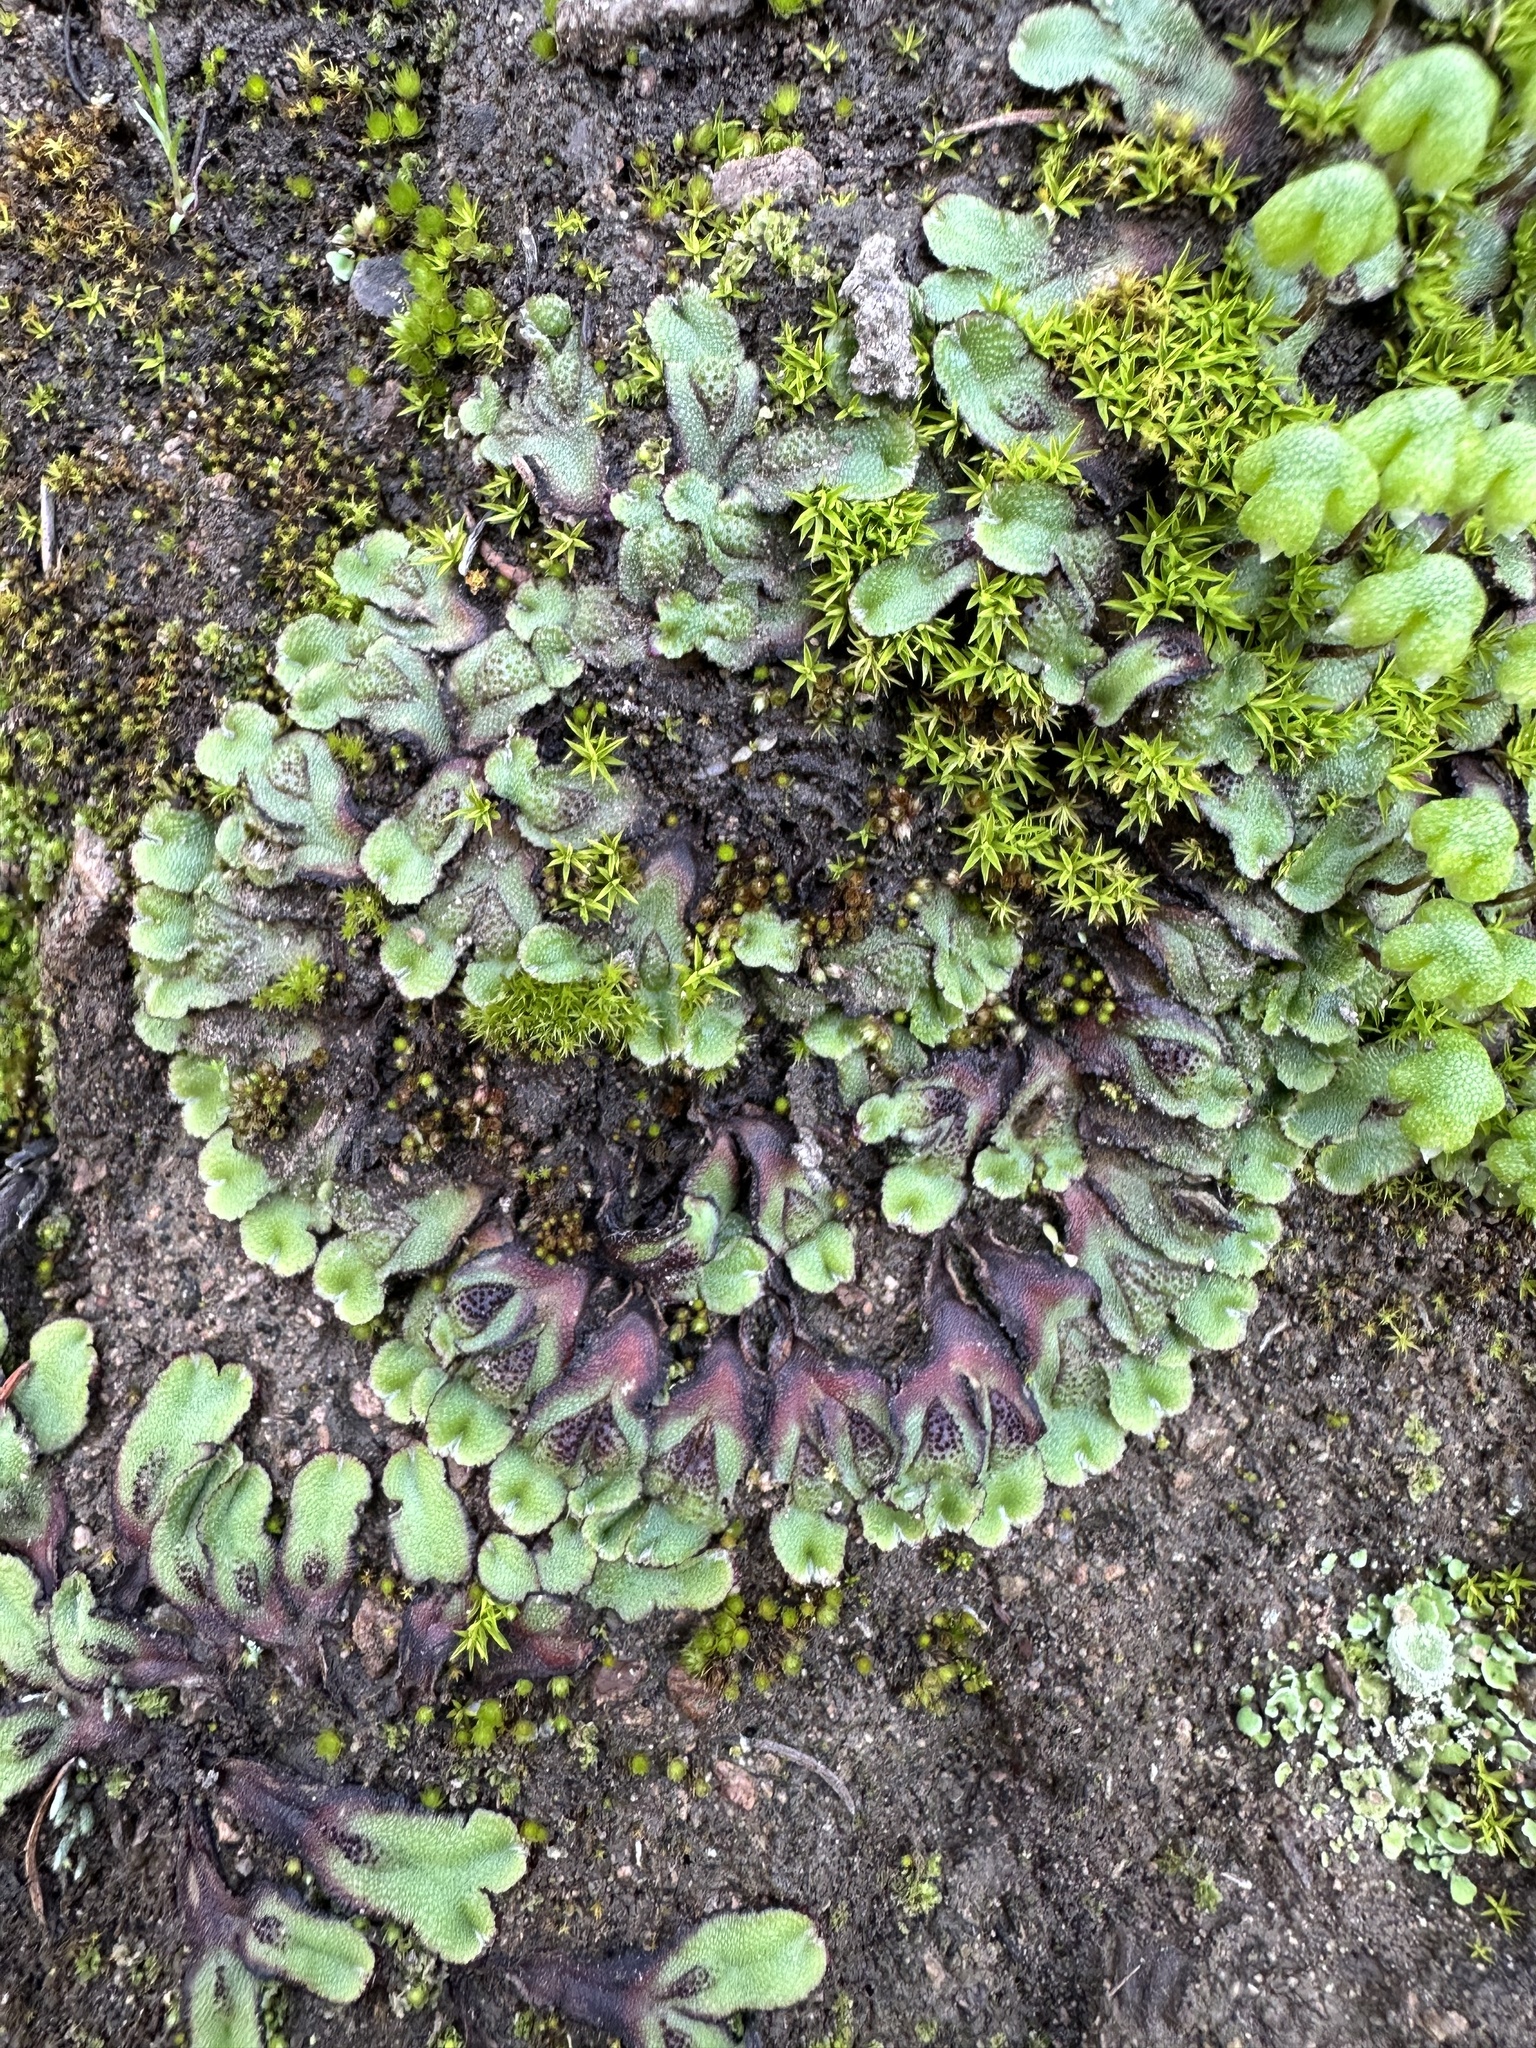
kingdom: Plantae
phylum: Marchantiophyta
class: Marchantiopsida
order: Marchantiales
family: Aytoniaceae
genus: Asterella
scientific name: Asterella californica
